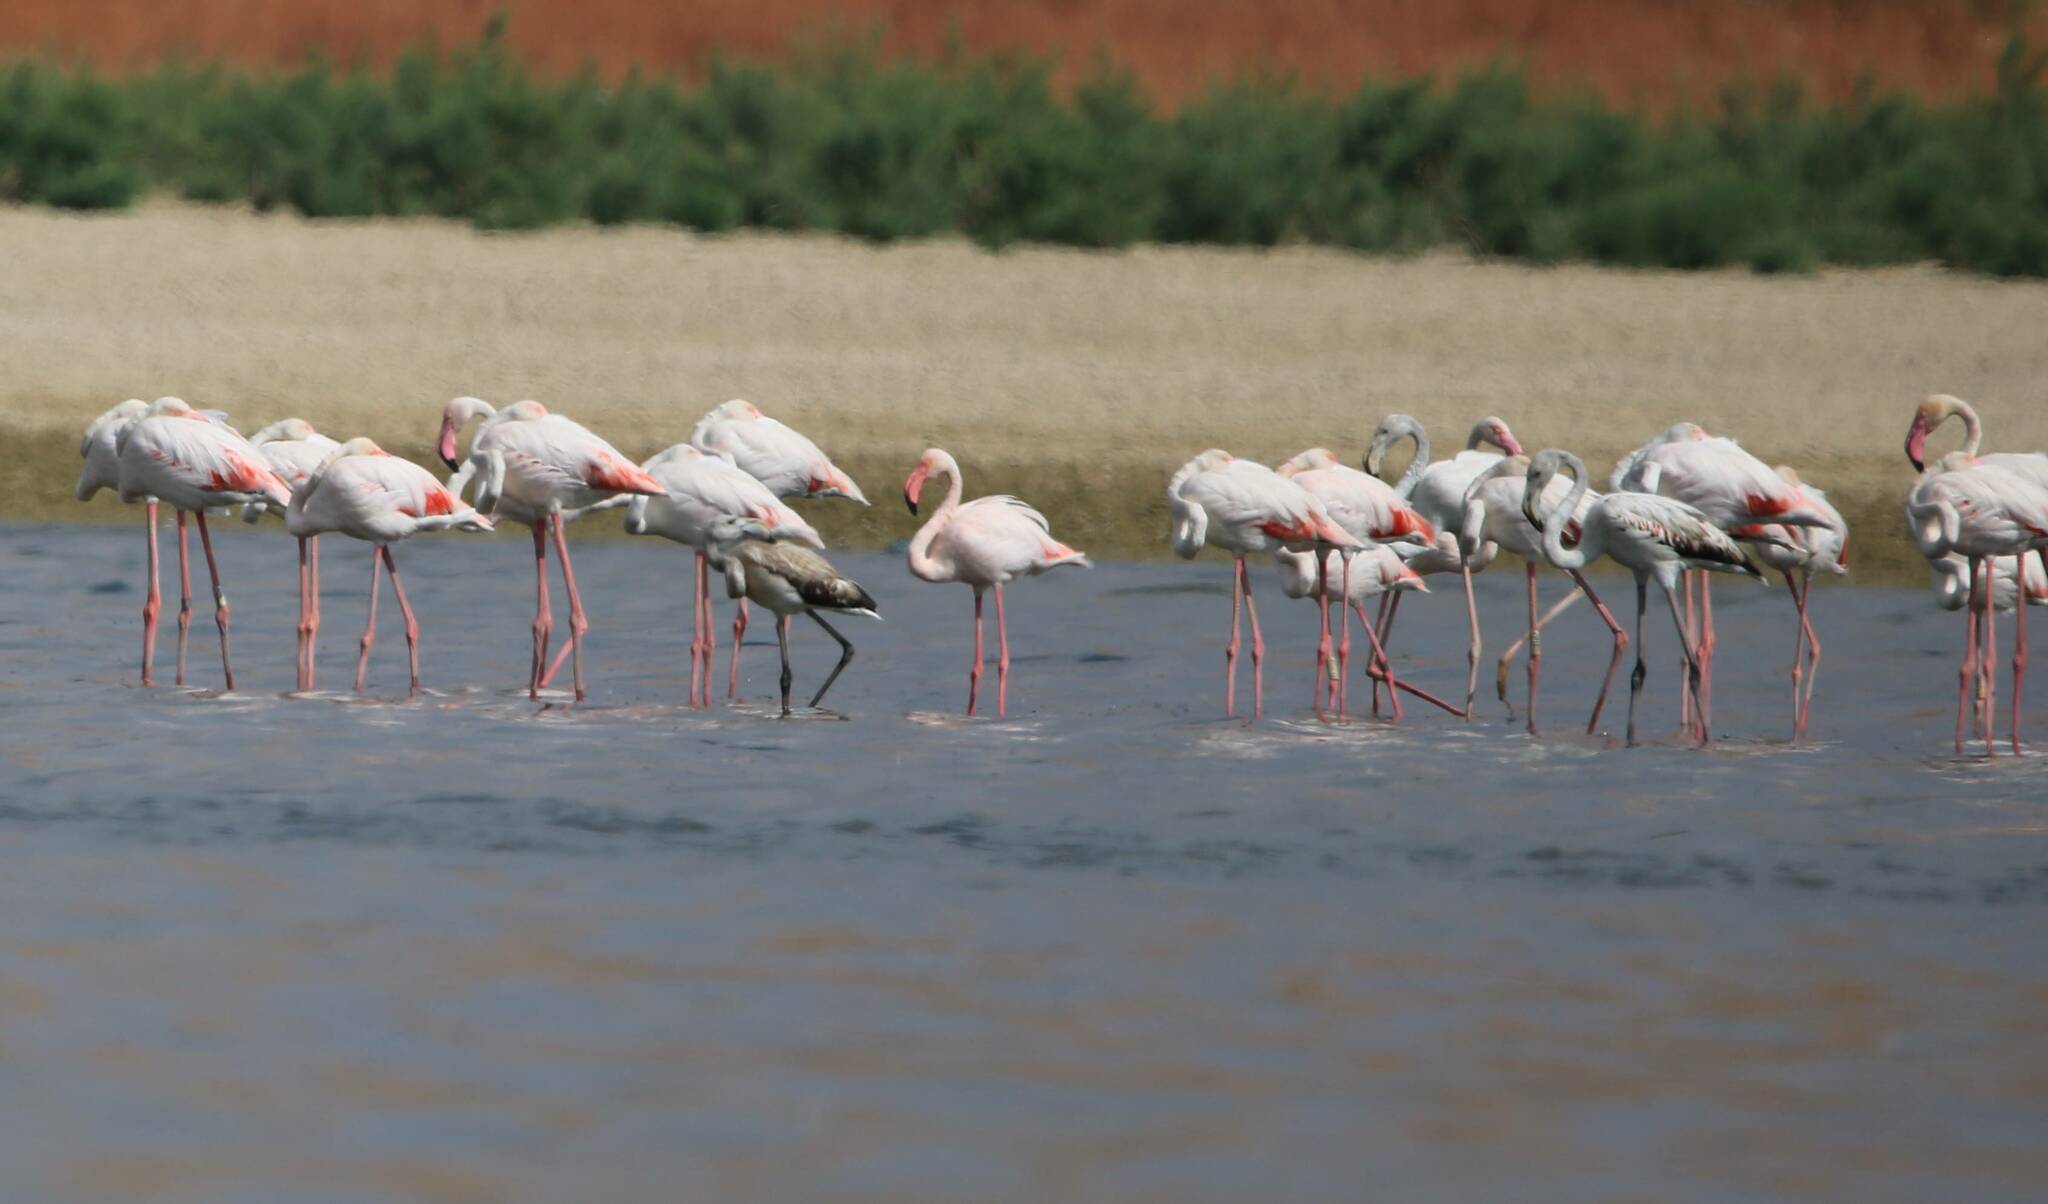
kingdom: Animalia
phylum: Chordata
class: Aves
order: Phoenicopteriformes
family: Phoenicopteridae
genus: Phoenicopterus
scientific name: Phoenicopterus roseus
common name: Greater flamingo
